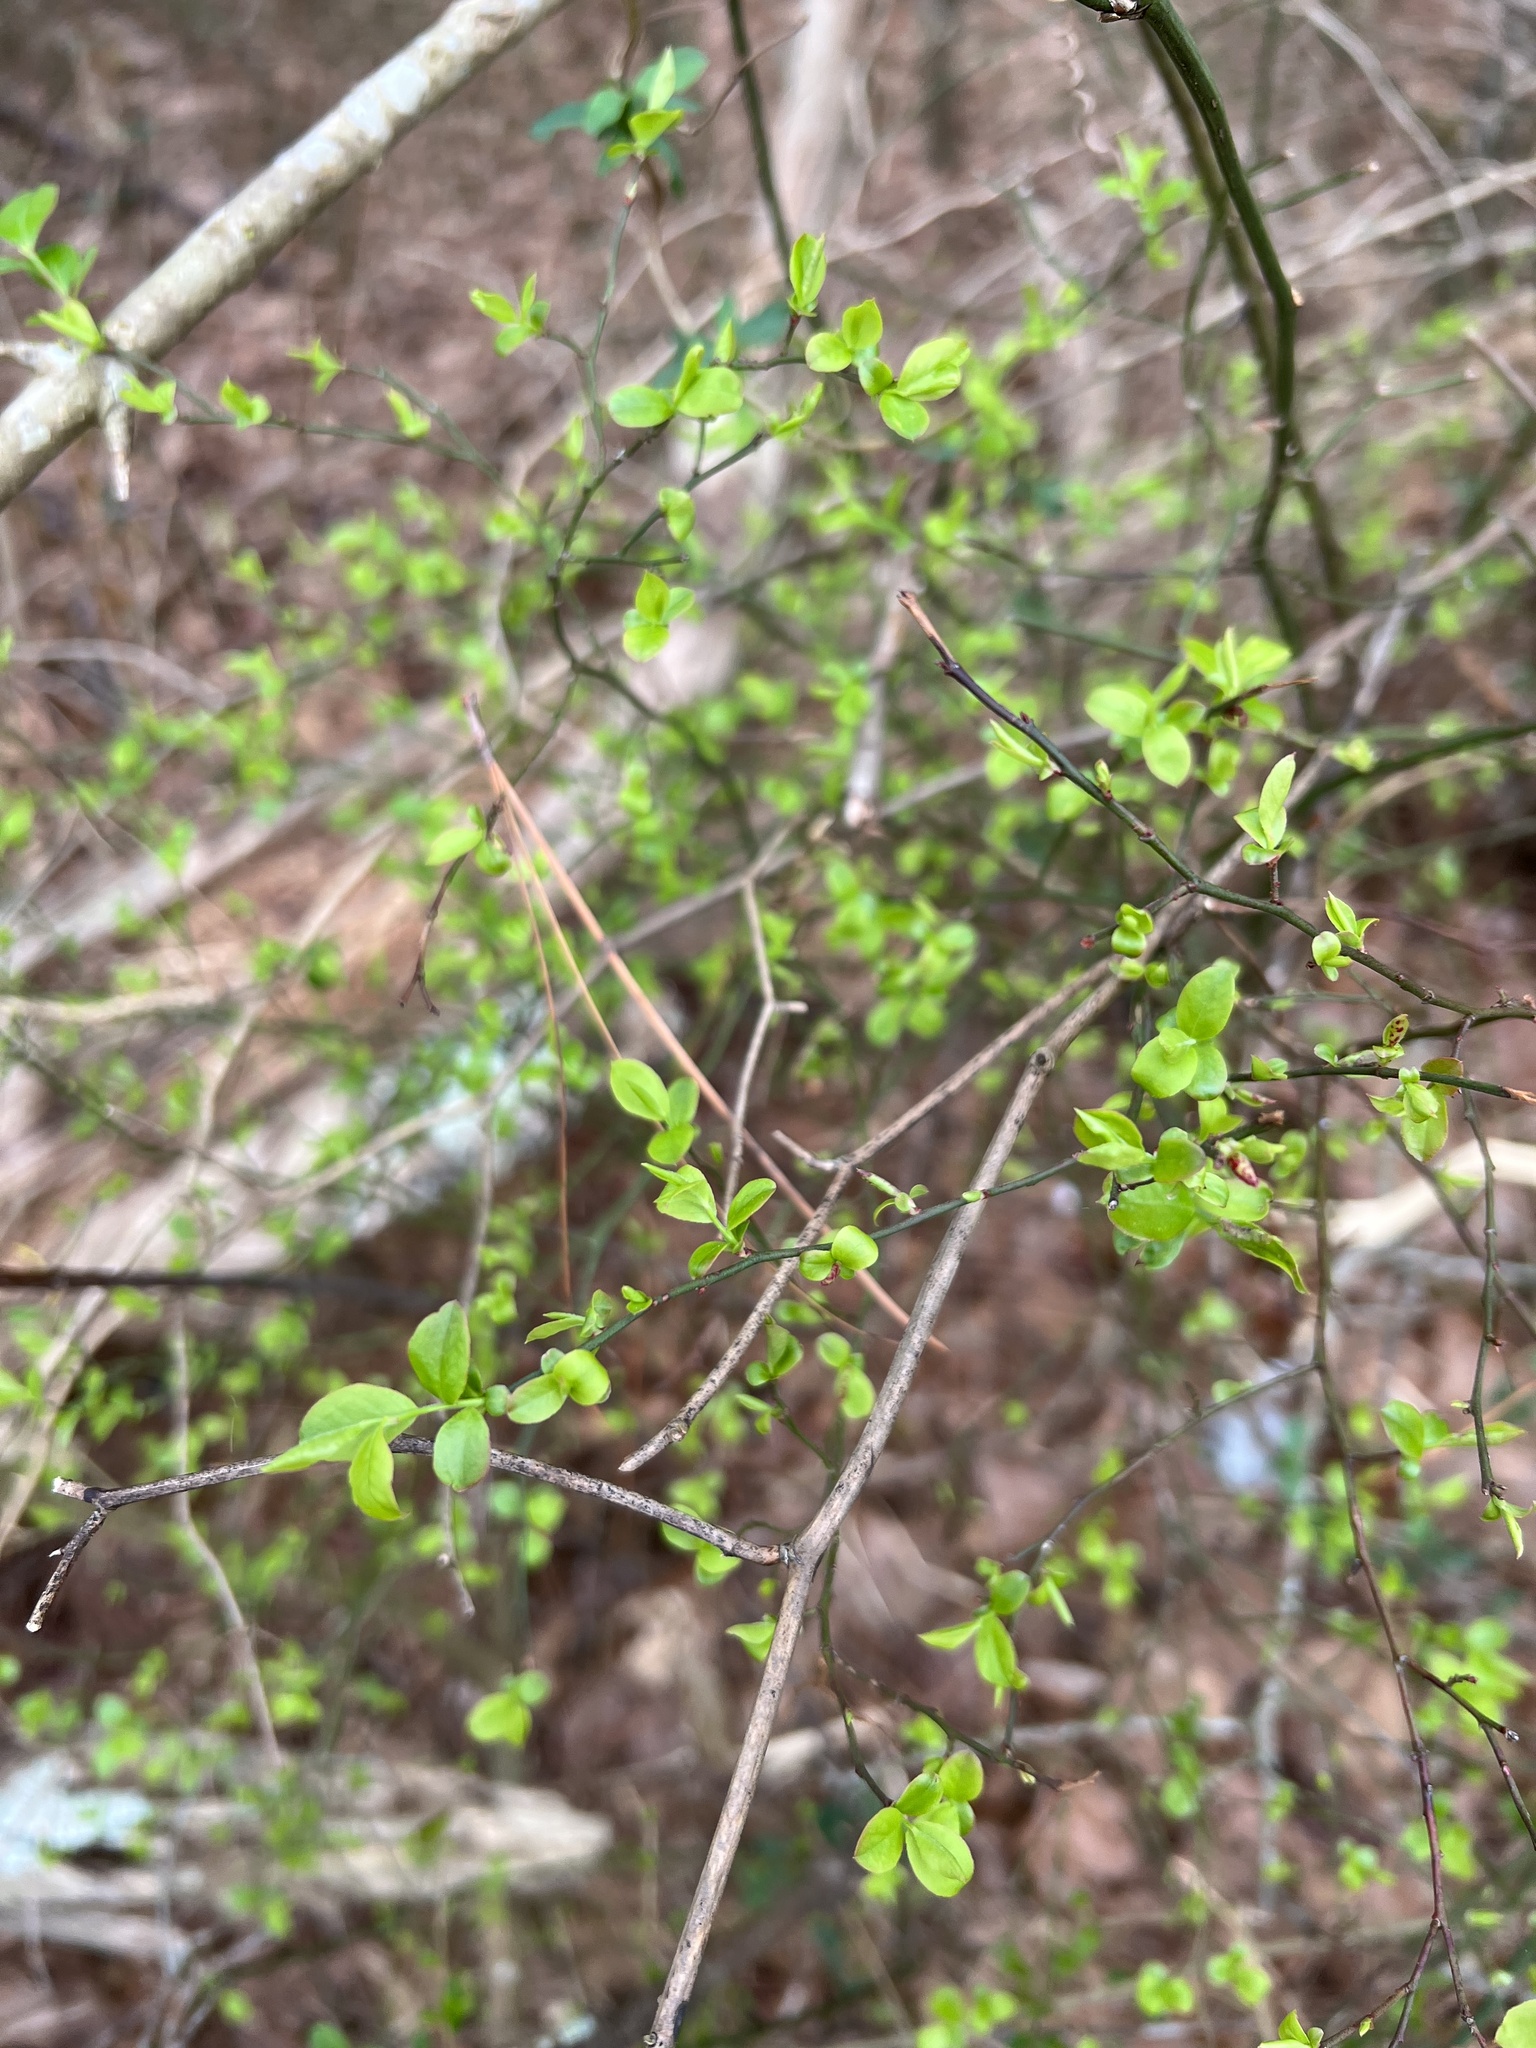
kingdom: Plantae
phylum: Tracheophyta
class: Magnoliopsida
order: Ericales
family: Ericaceae
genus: Vaccinium
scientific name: Vaccinium corymbosum
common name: Blueberry
